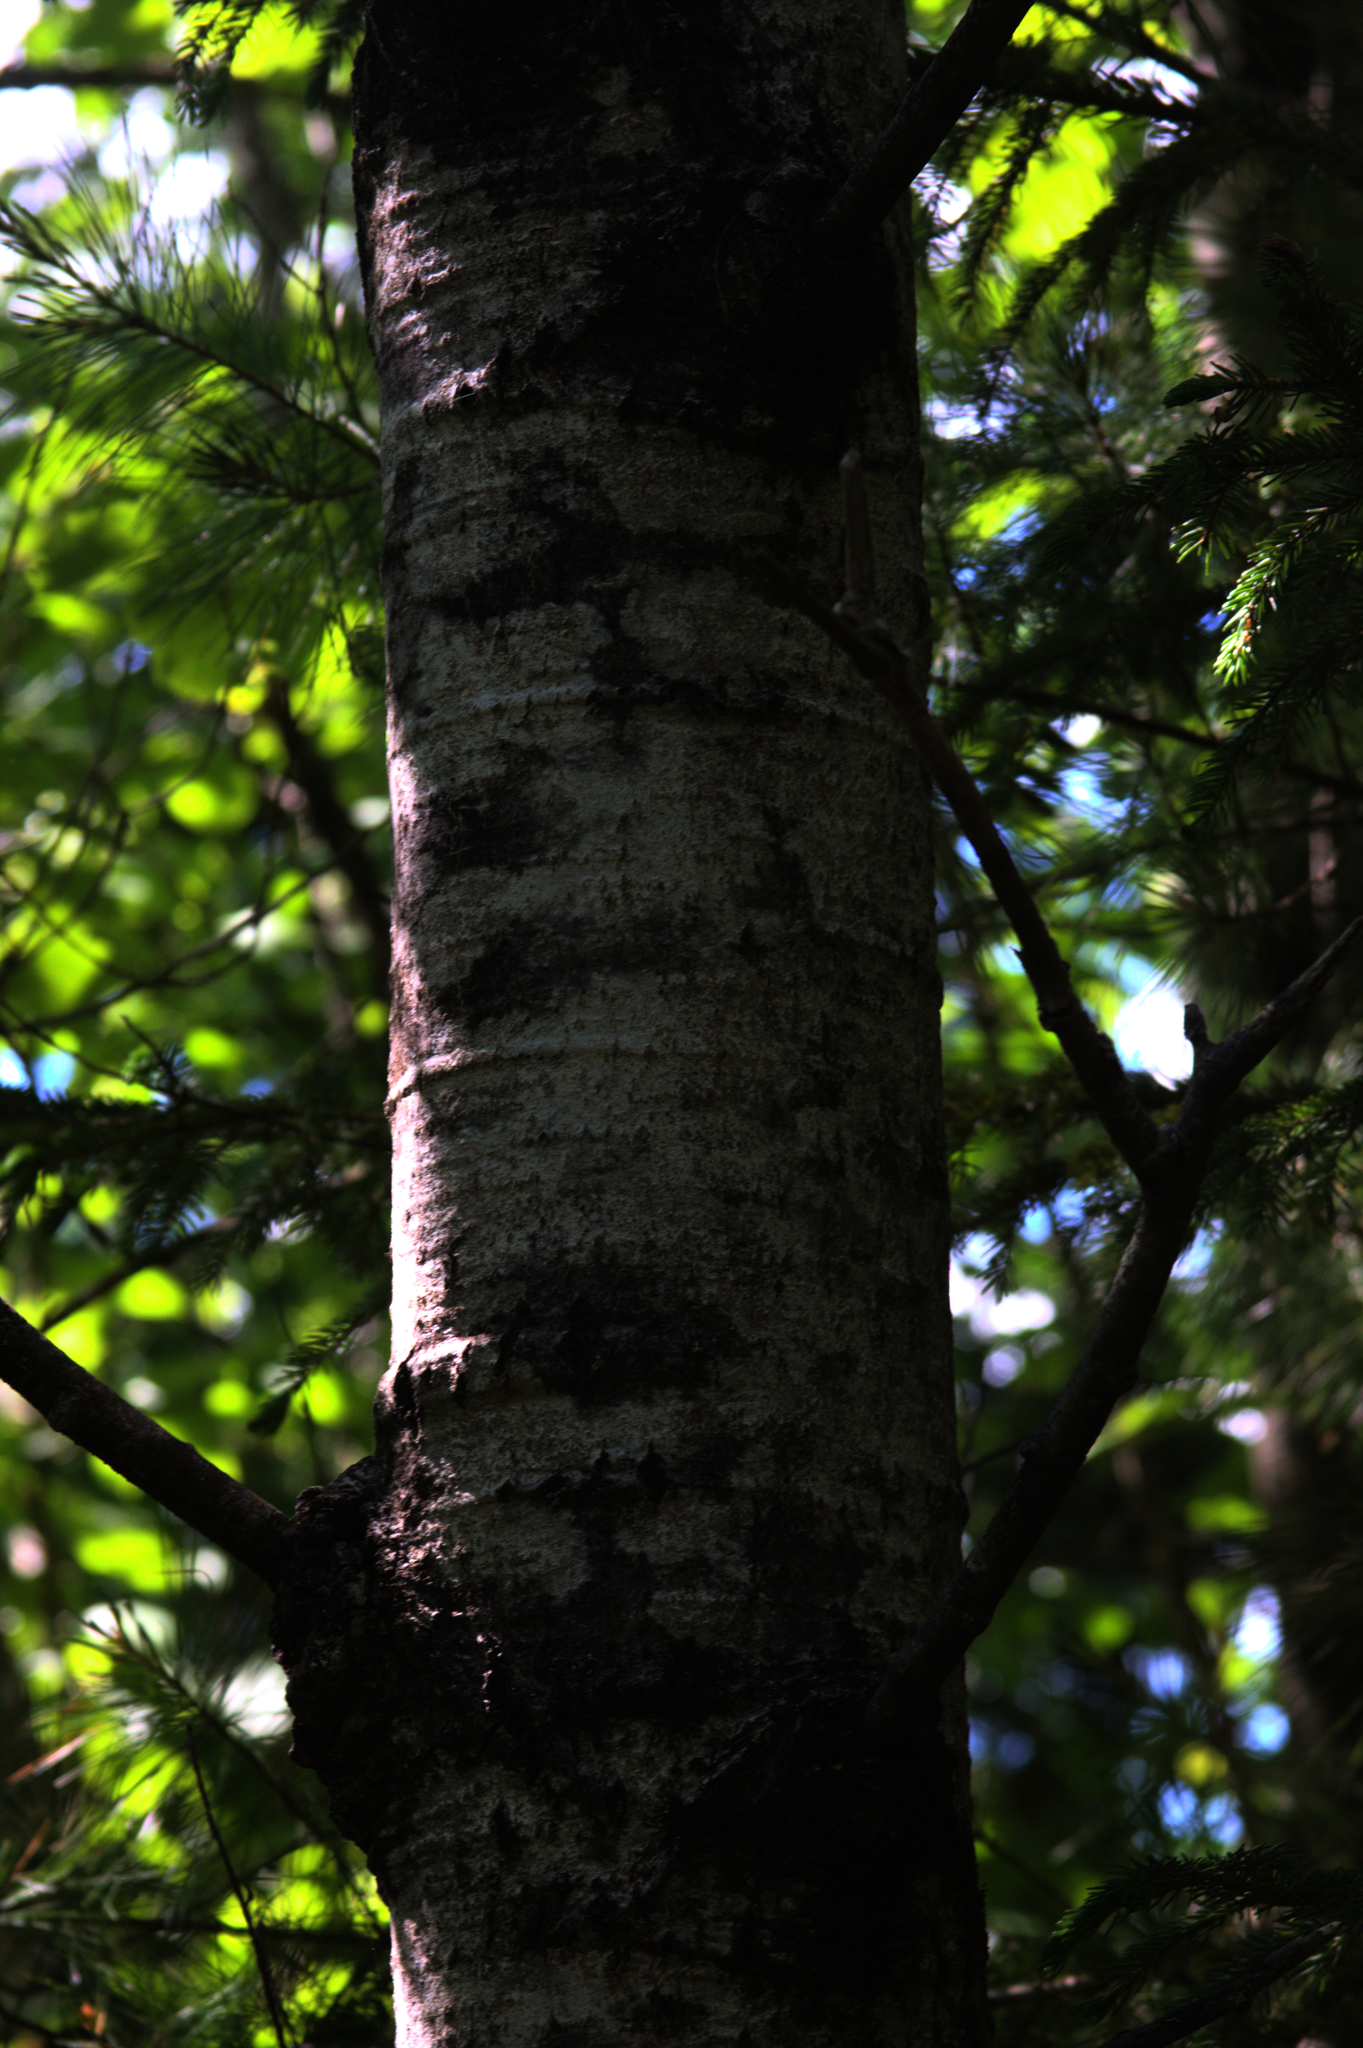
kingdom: Plantae
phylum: Tracheophyta
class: Magnoliopsida
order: Malpighiales
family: Salicaceae
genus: Populus
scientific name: Populus tremuloides
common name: Quaking aspen
